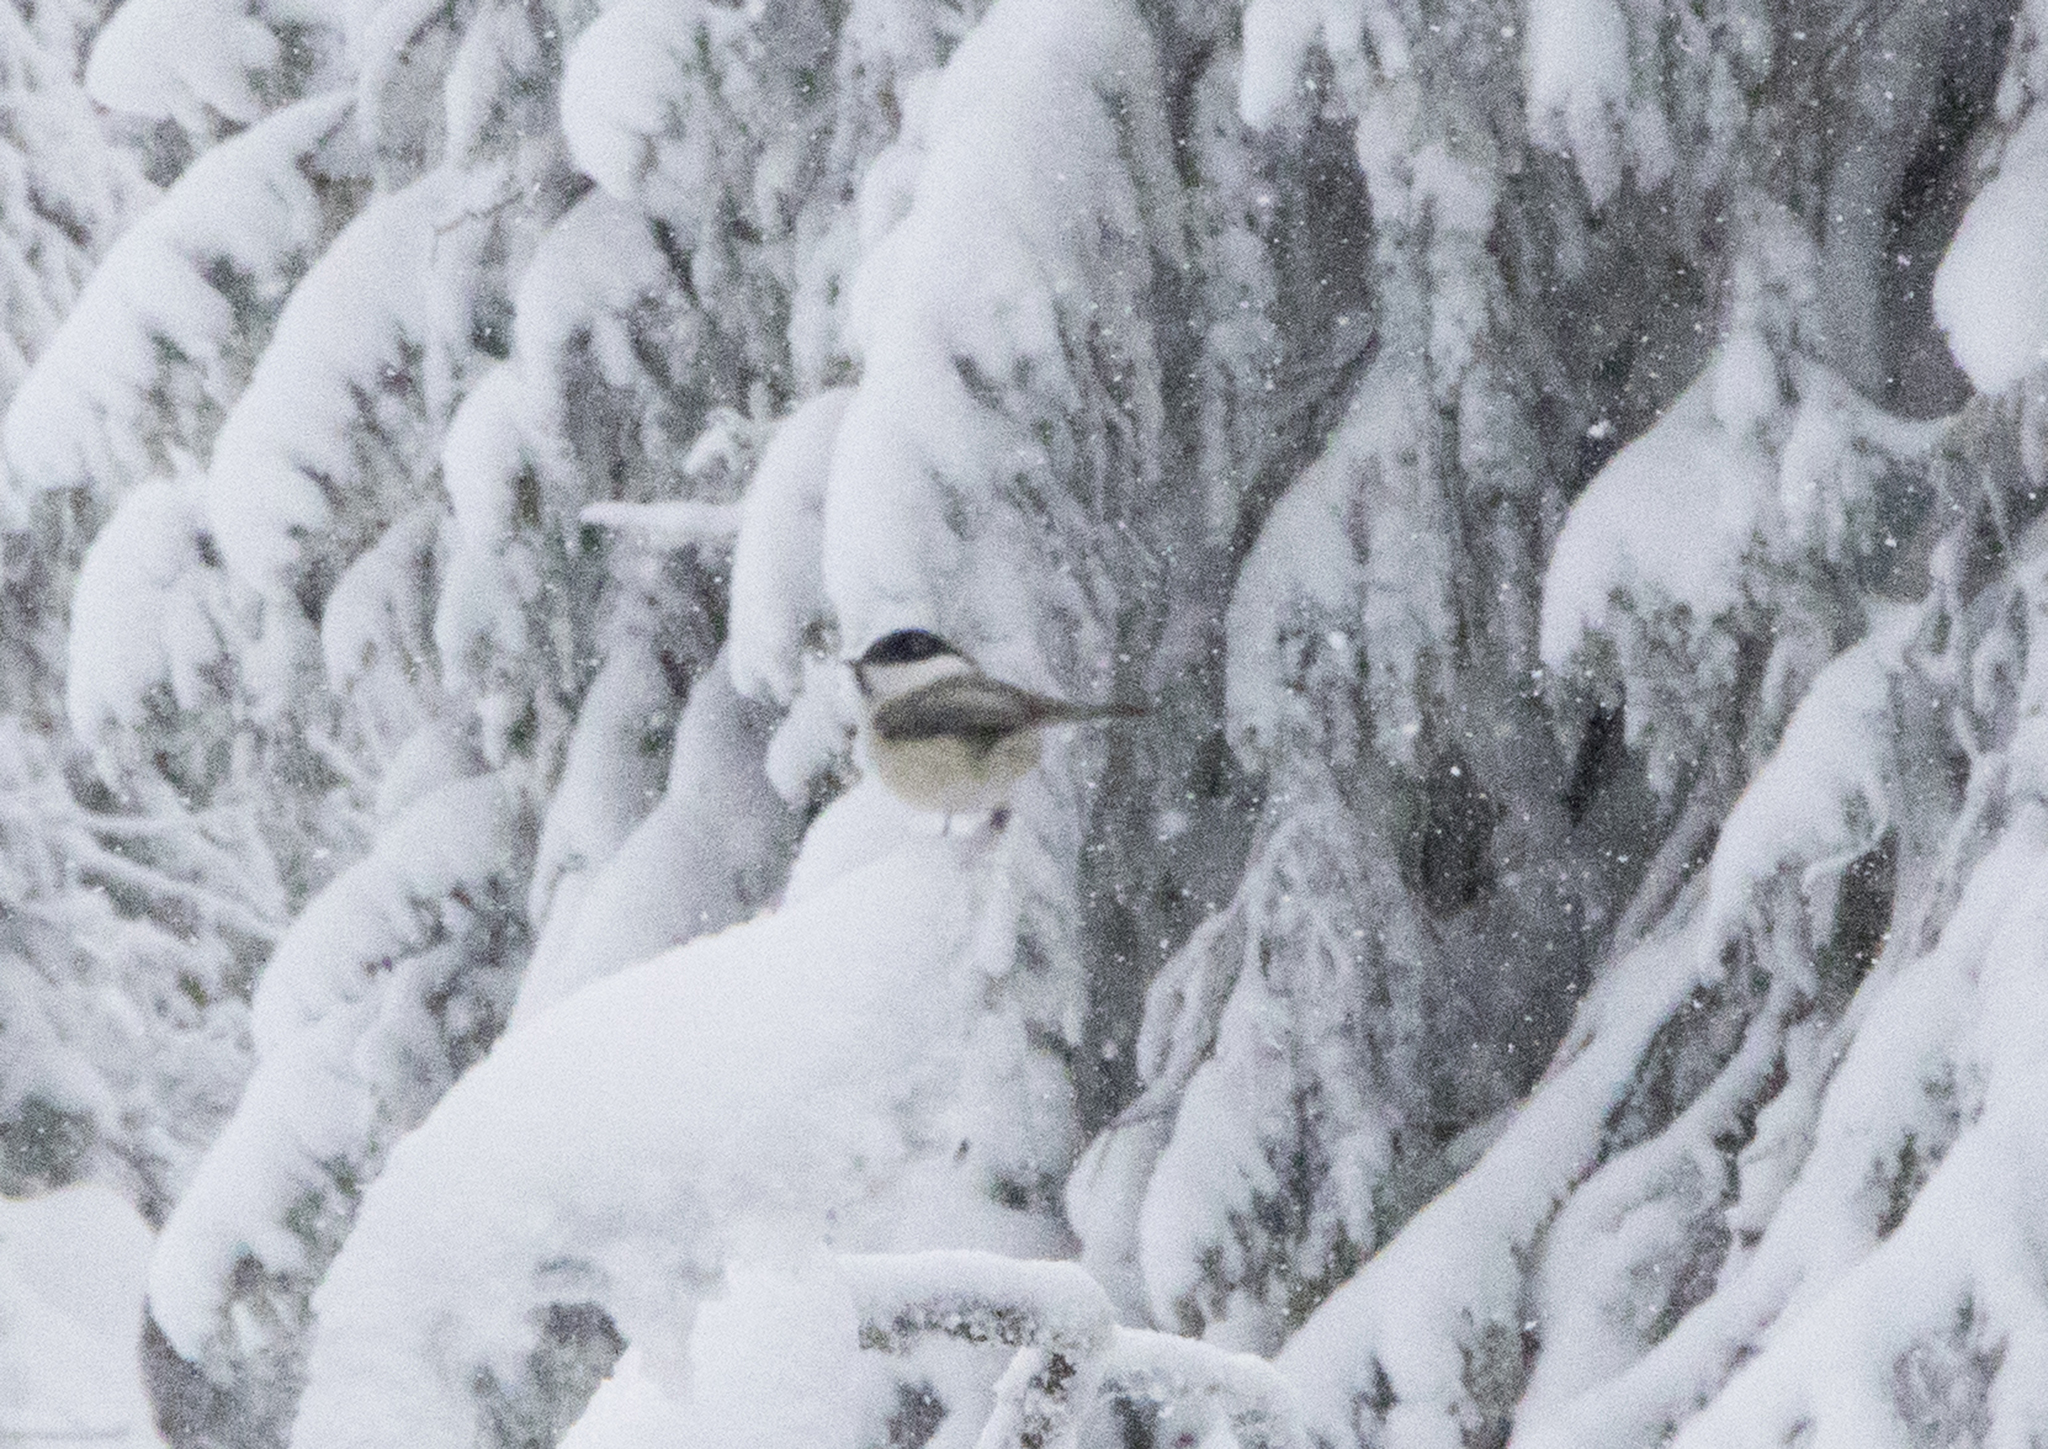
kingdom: Animalia
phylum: Chordata
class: Aves
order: Passeriformes
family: Paridae
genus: Poecile
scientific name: Poecile montanus
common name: Willow tit
